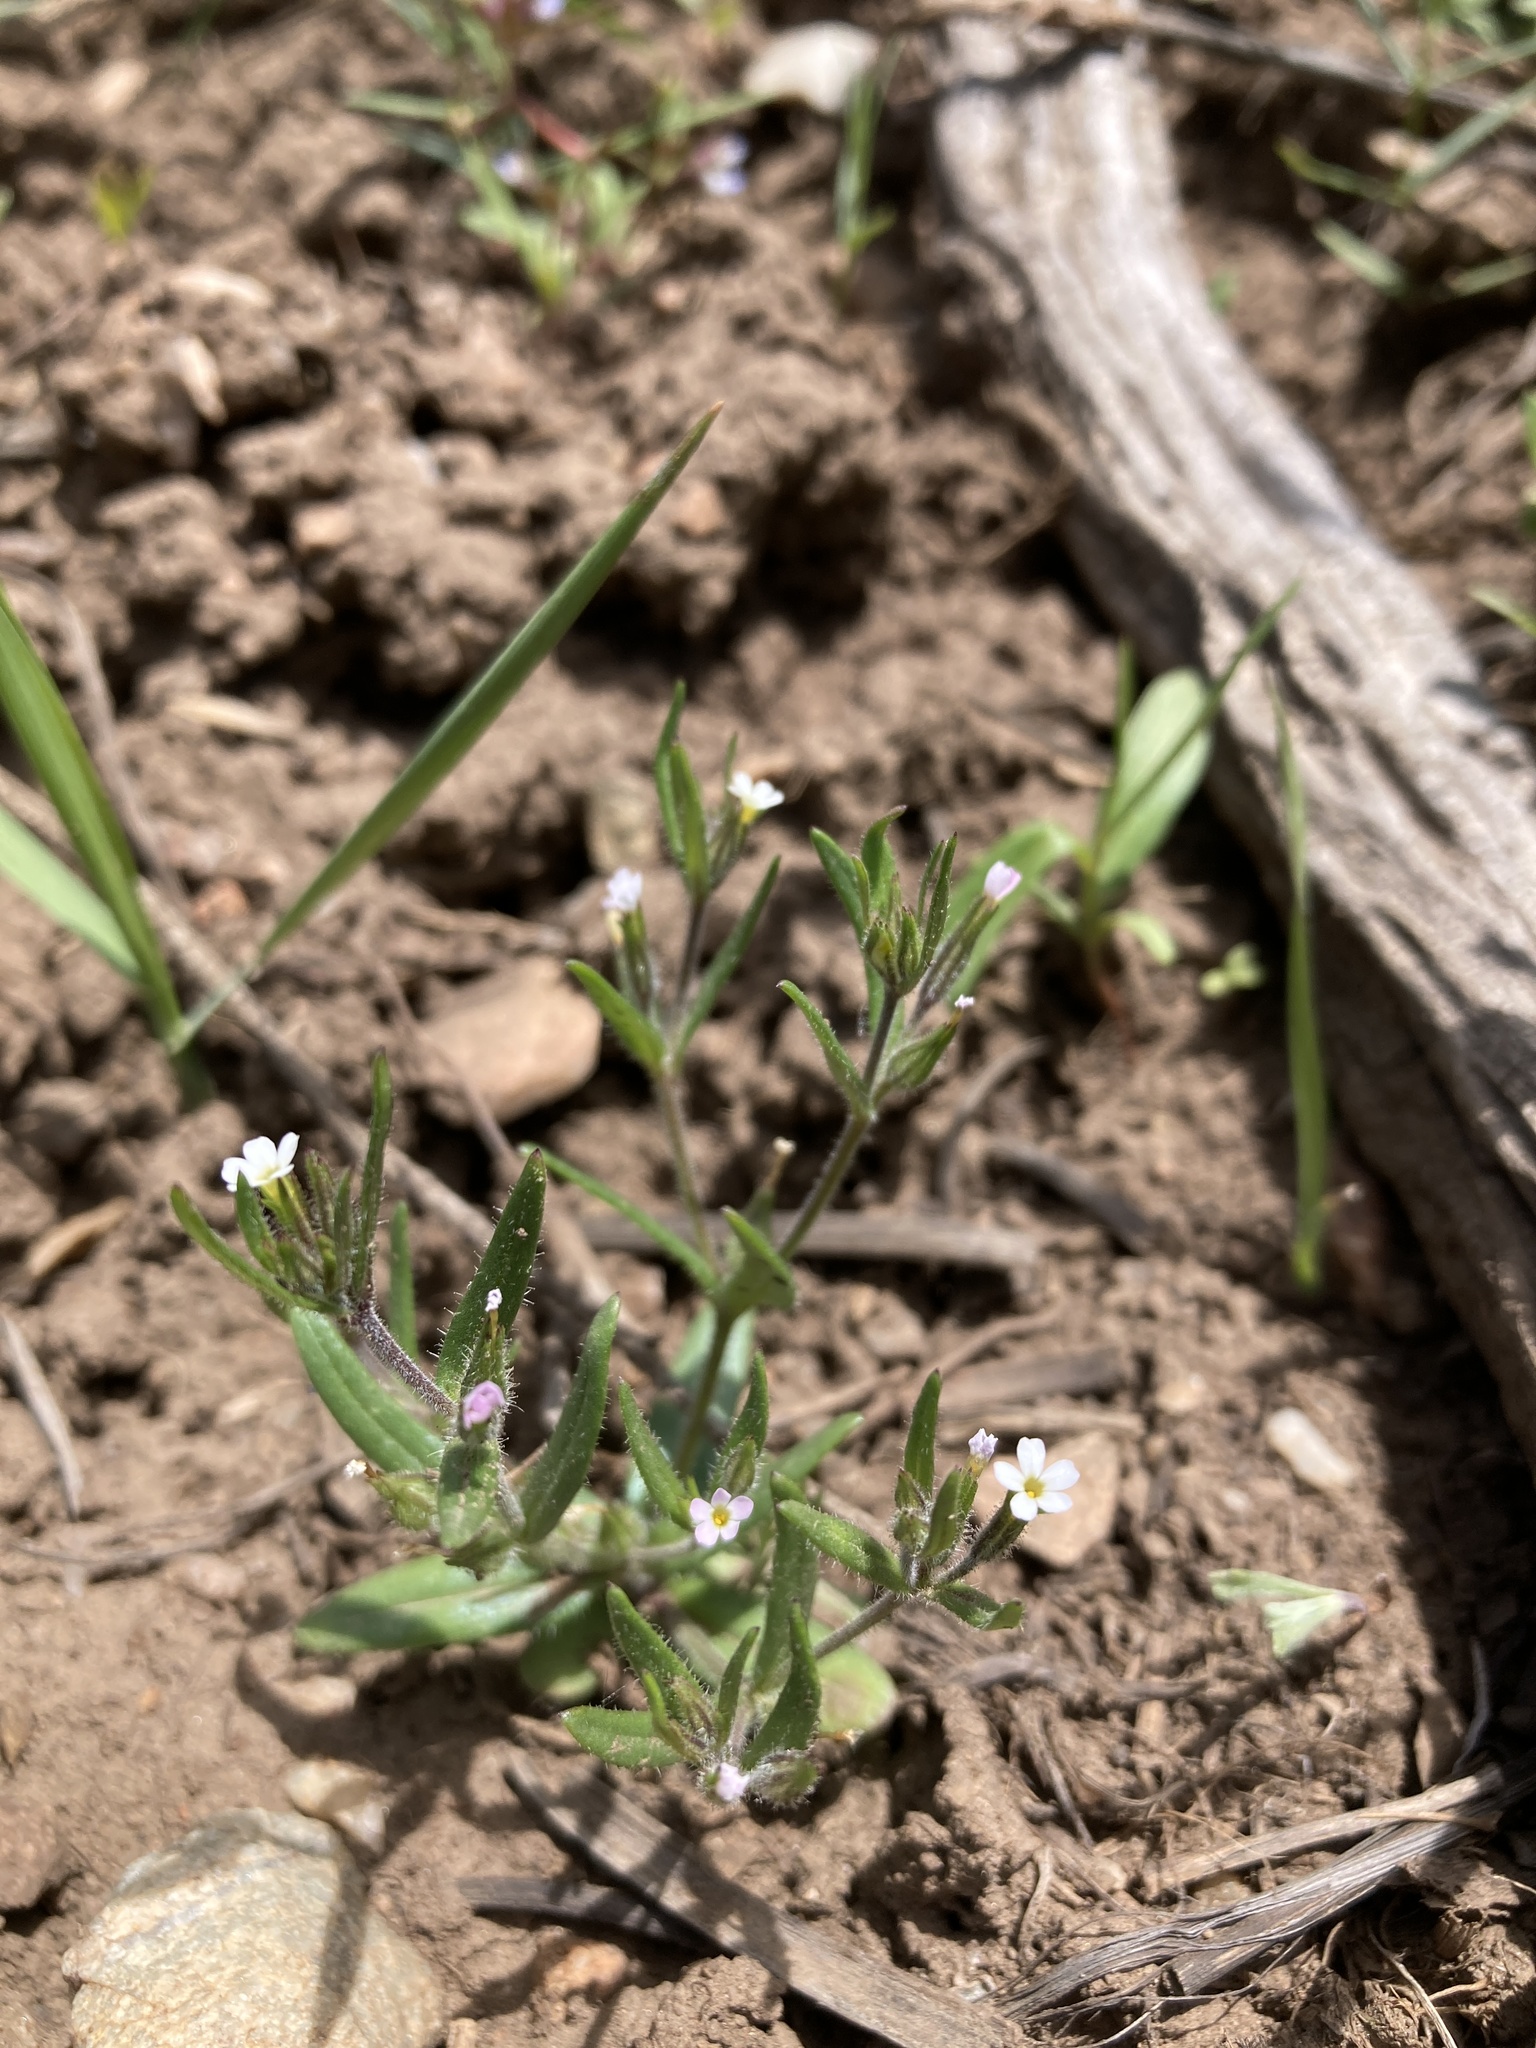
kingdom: Plantae
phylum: Tracheophyta
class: Magnoliopsida
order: Ericales
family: Polemoniaceae
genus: Phlox
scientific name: Phlox gracilis
